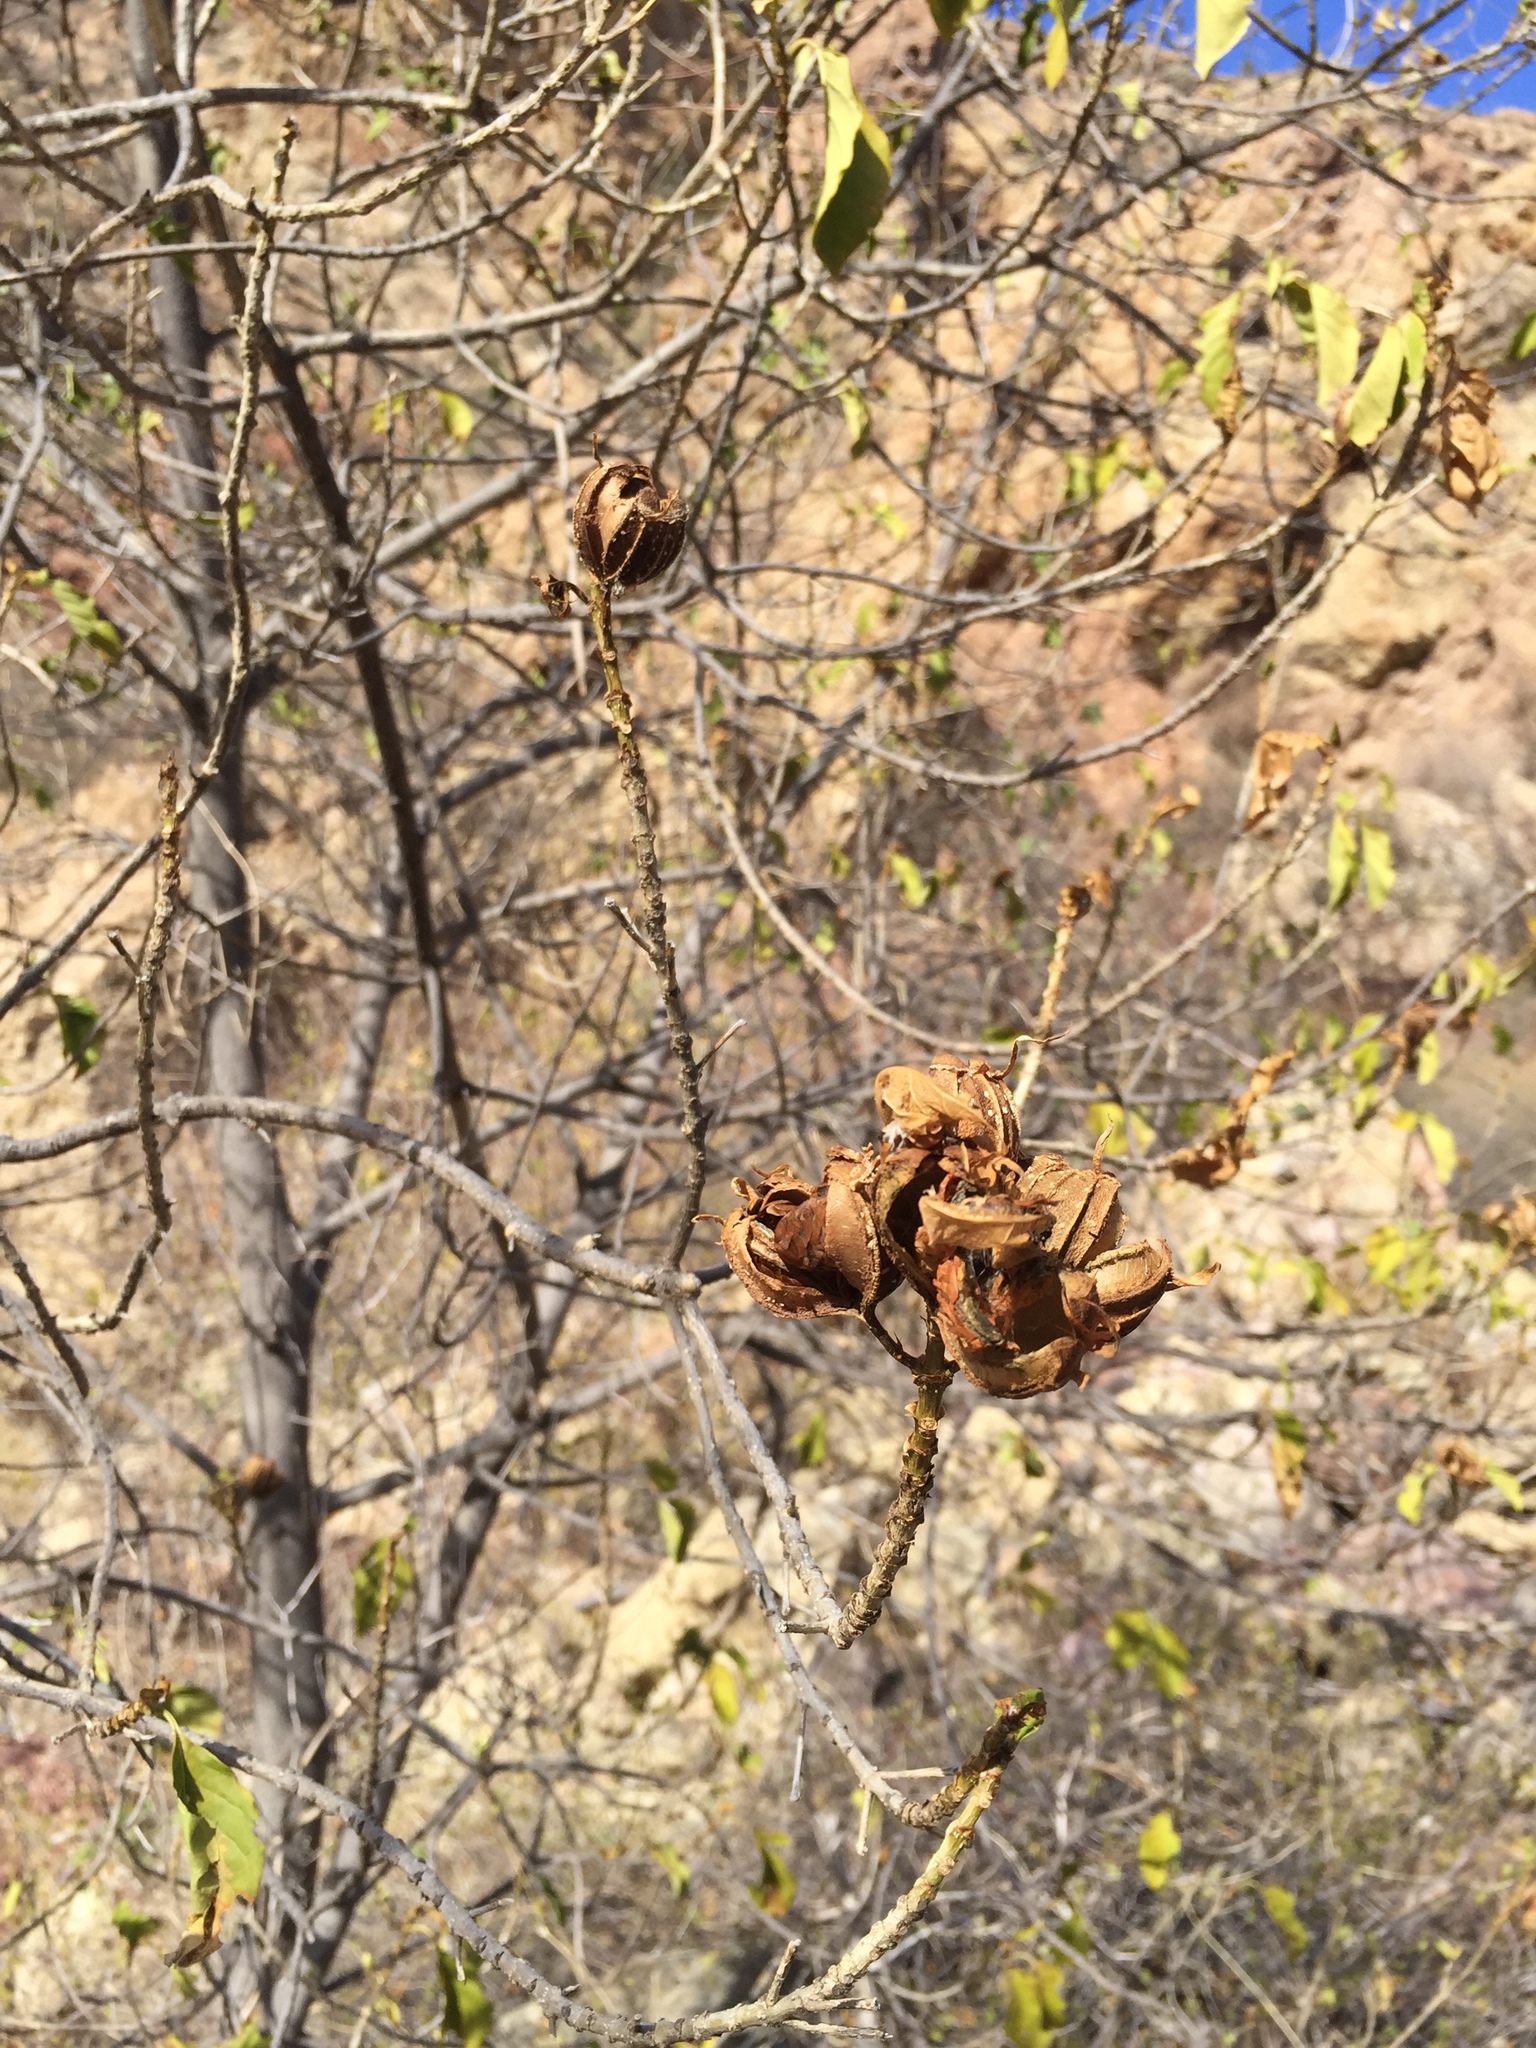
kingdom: Plantae
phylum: Tracheophyta
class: Magnoliopsida
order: Gentianales
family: Rubiaceae
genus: Hintonia
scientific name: Hintonia latiflora
